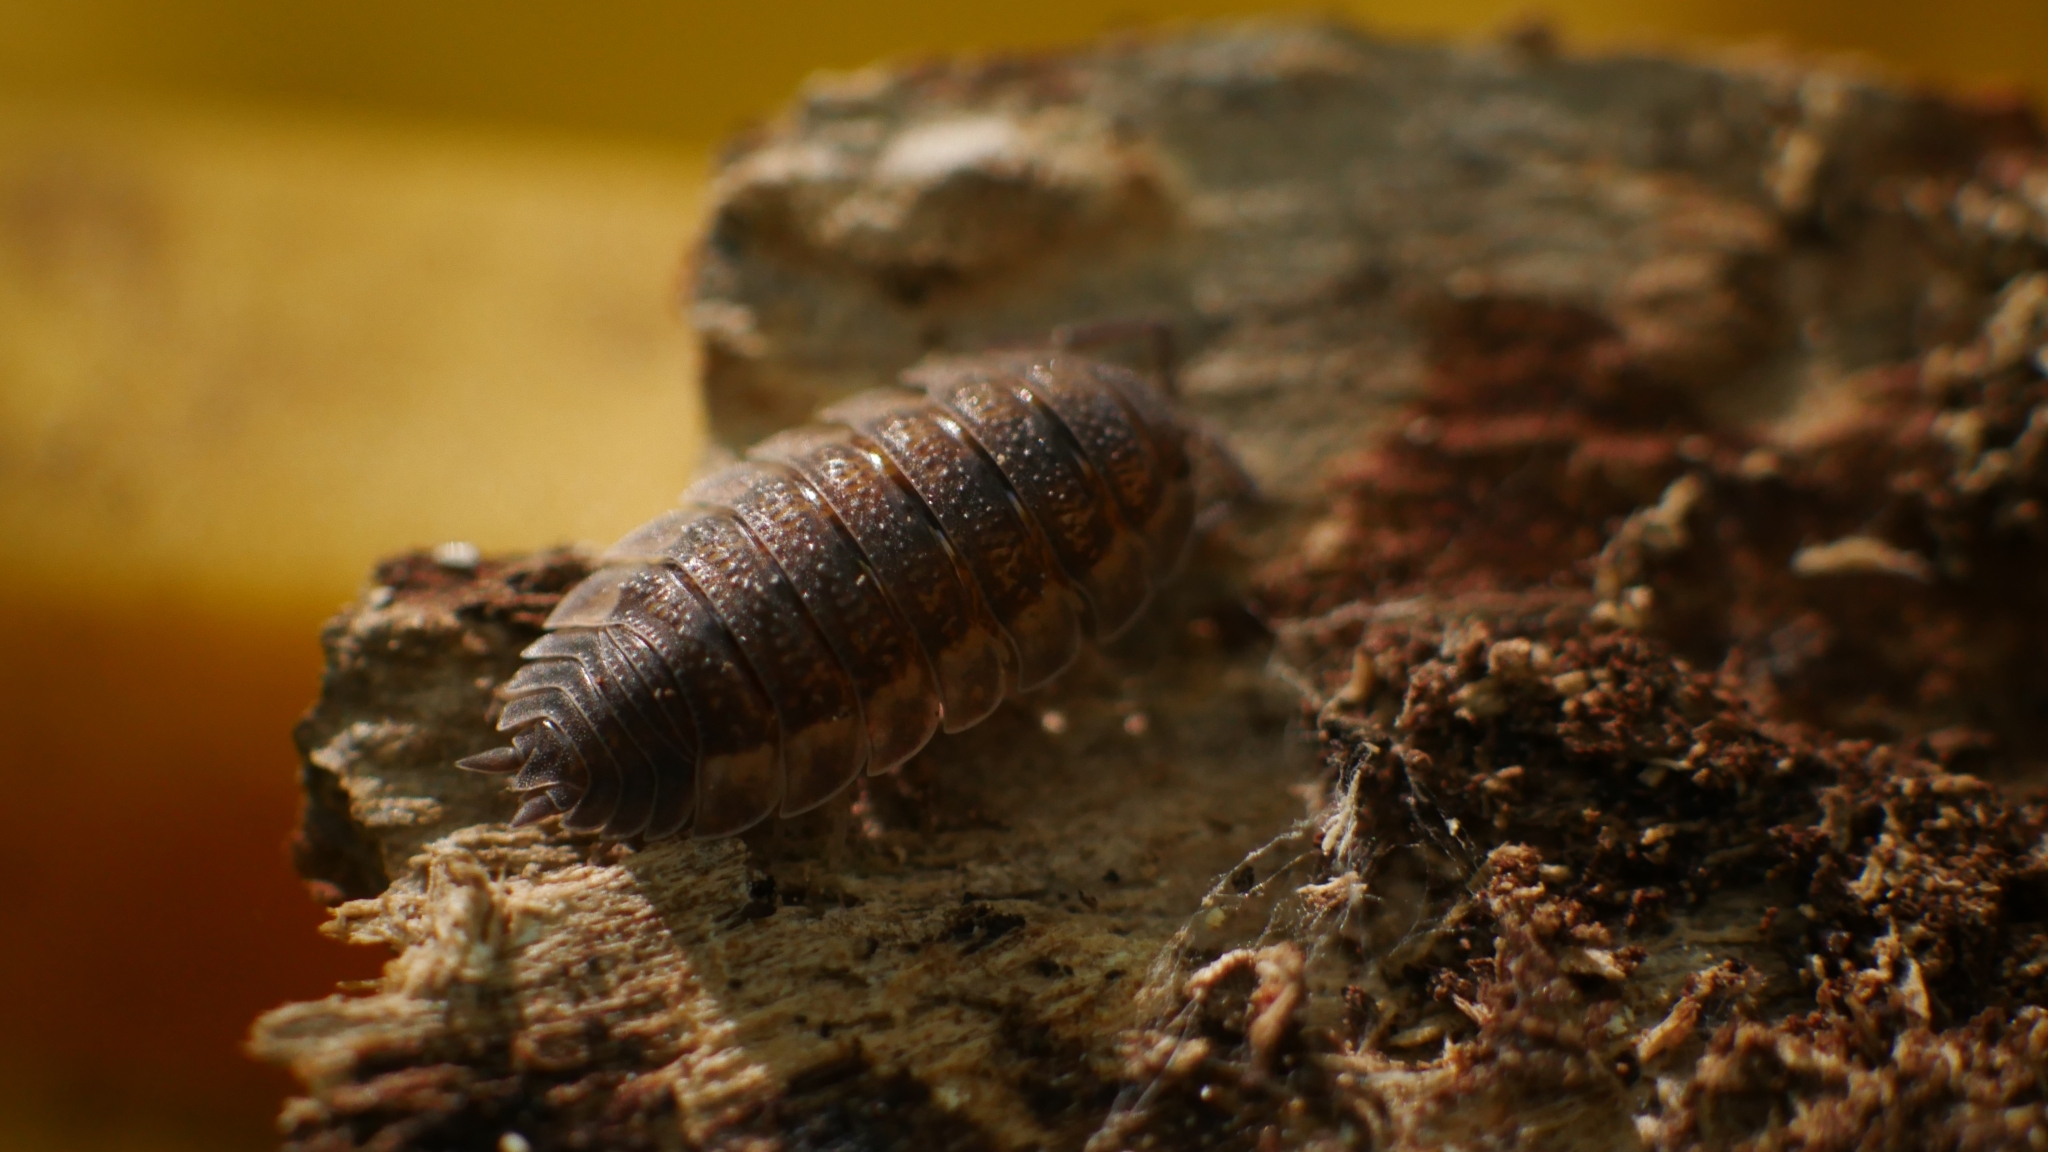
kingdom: Animalia
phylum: Arthropoda
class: Malacostraca
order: Isopoda
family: Porcellionidae
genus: Porcellio
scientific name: Porcellio scaber
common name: Common rough woodlouse
